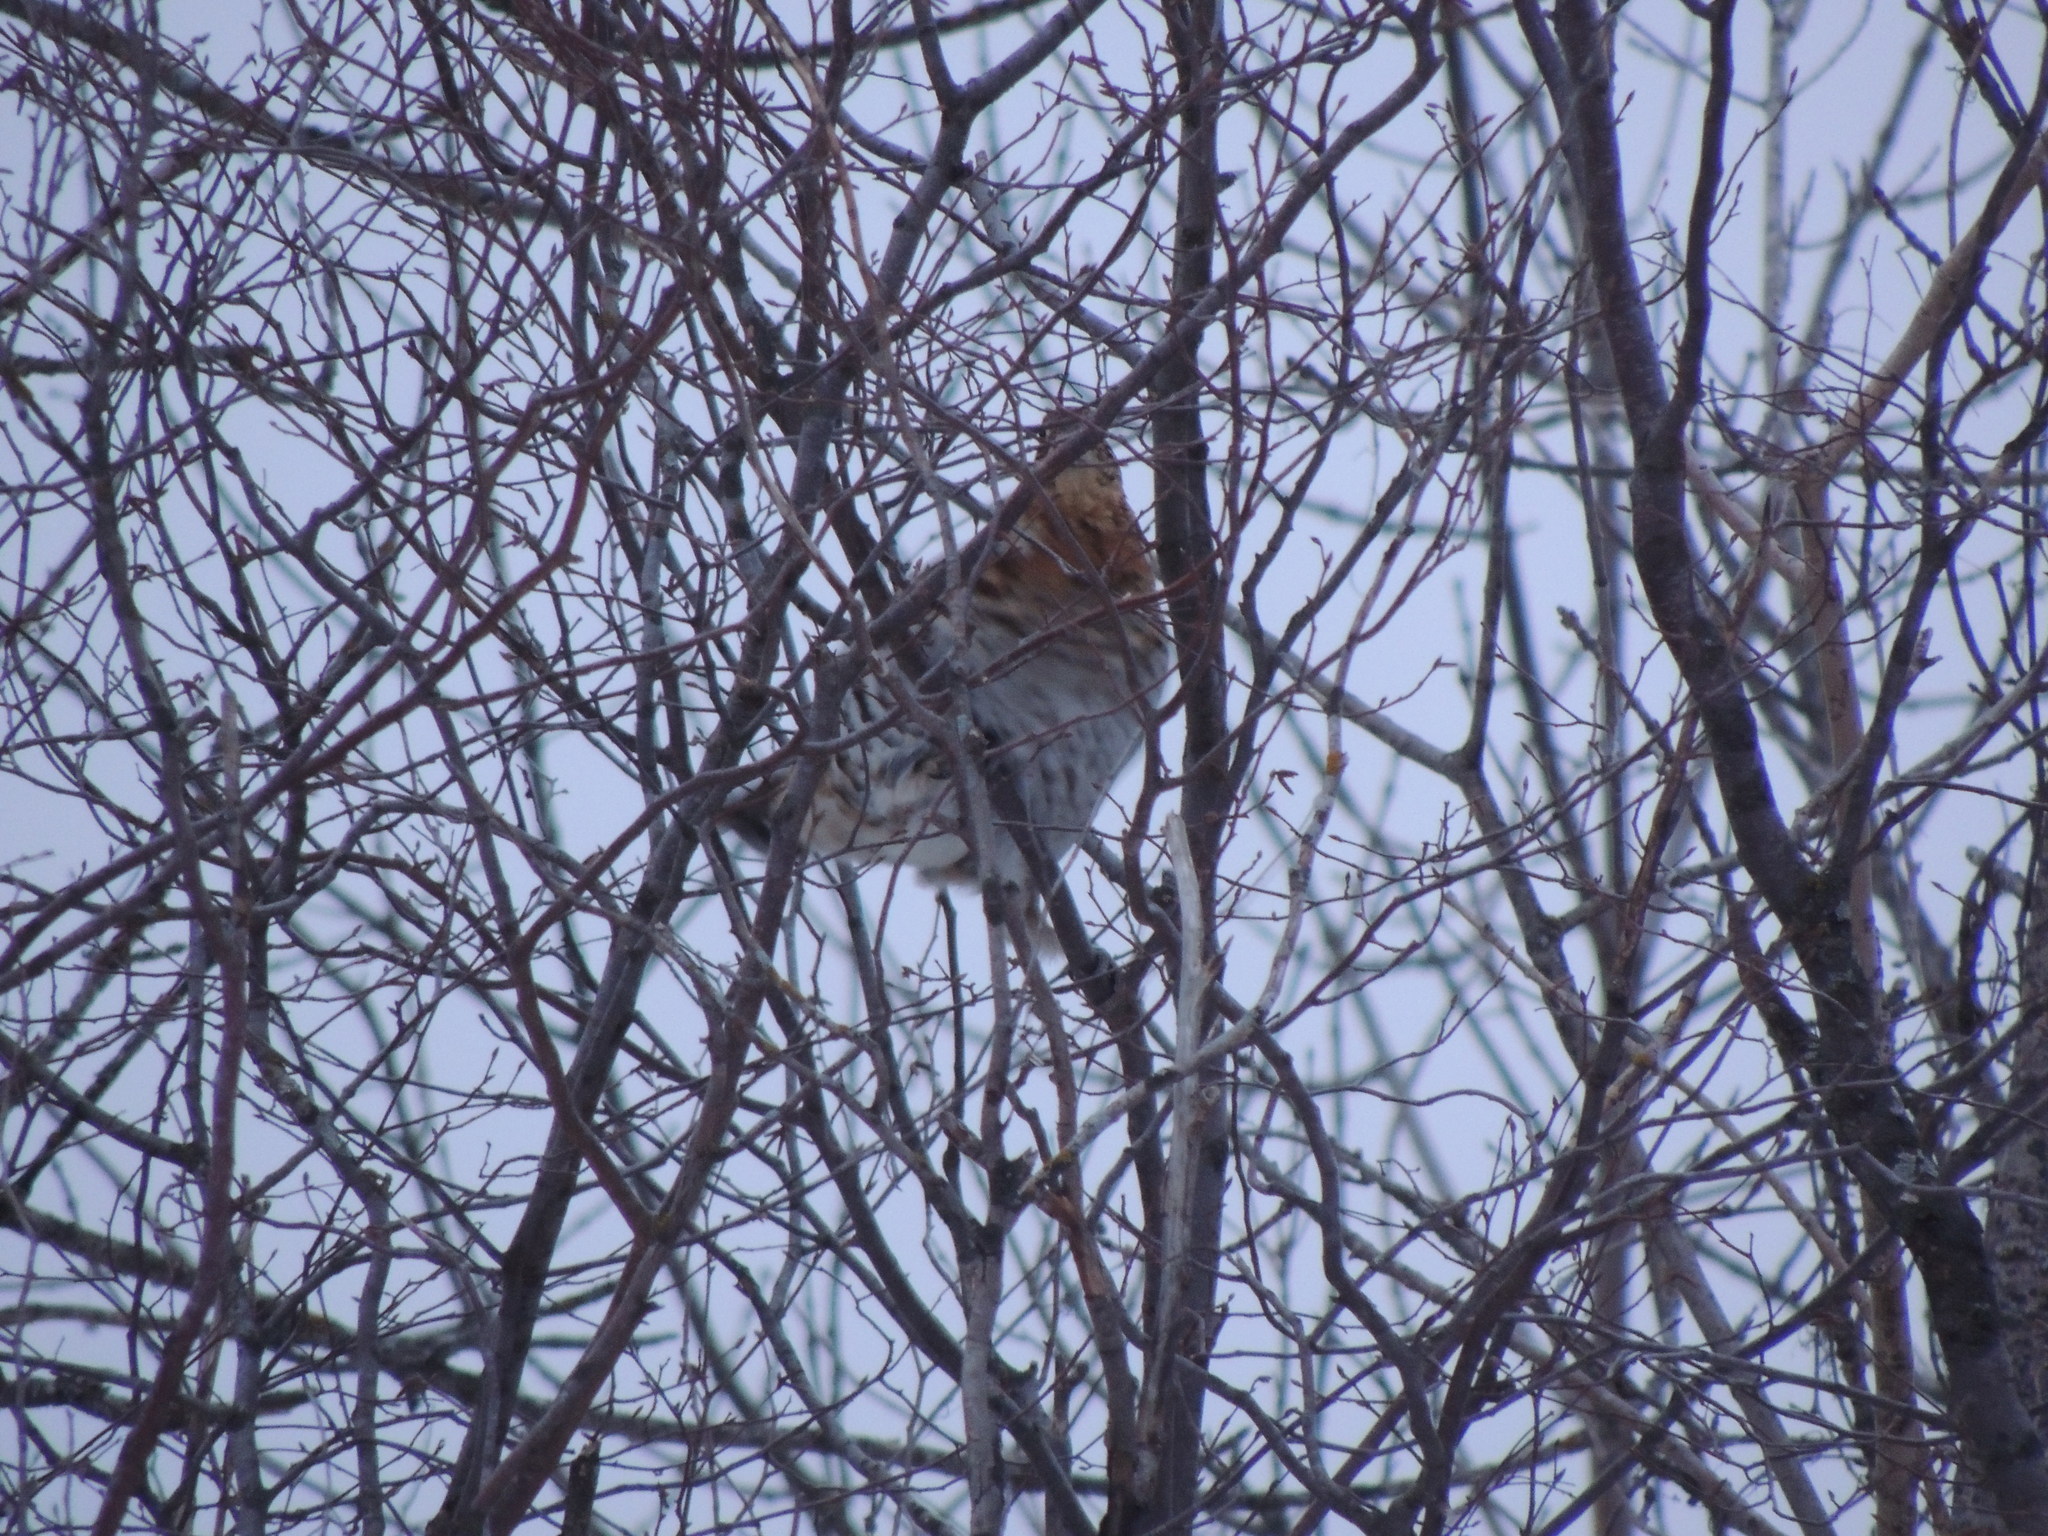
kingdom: Animalia
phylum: Chordata
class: Aves
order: Galliformes
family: Phasianidae
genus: Bonasa
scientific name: Bonasa umbellus
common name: Ruffed grouse
